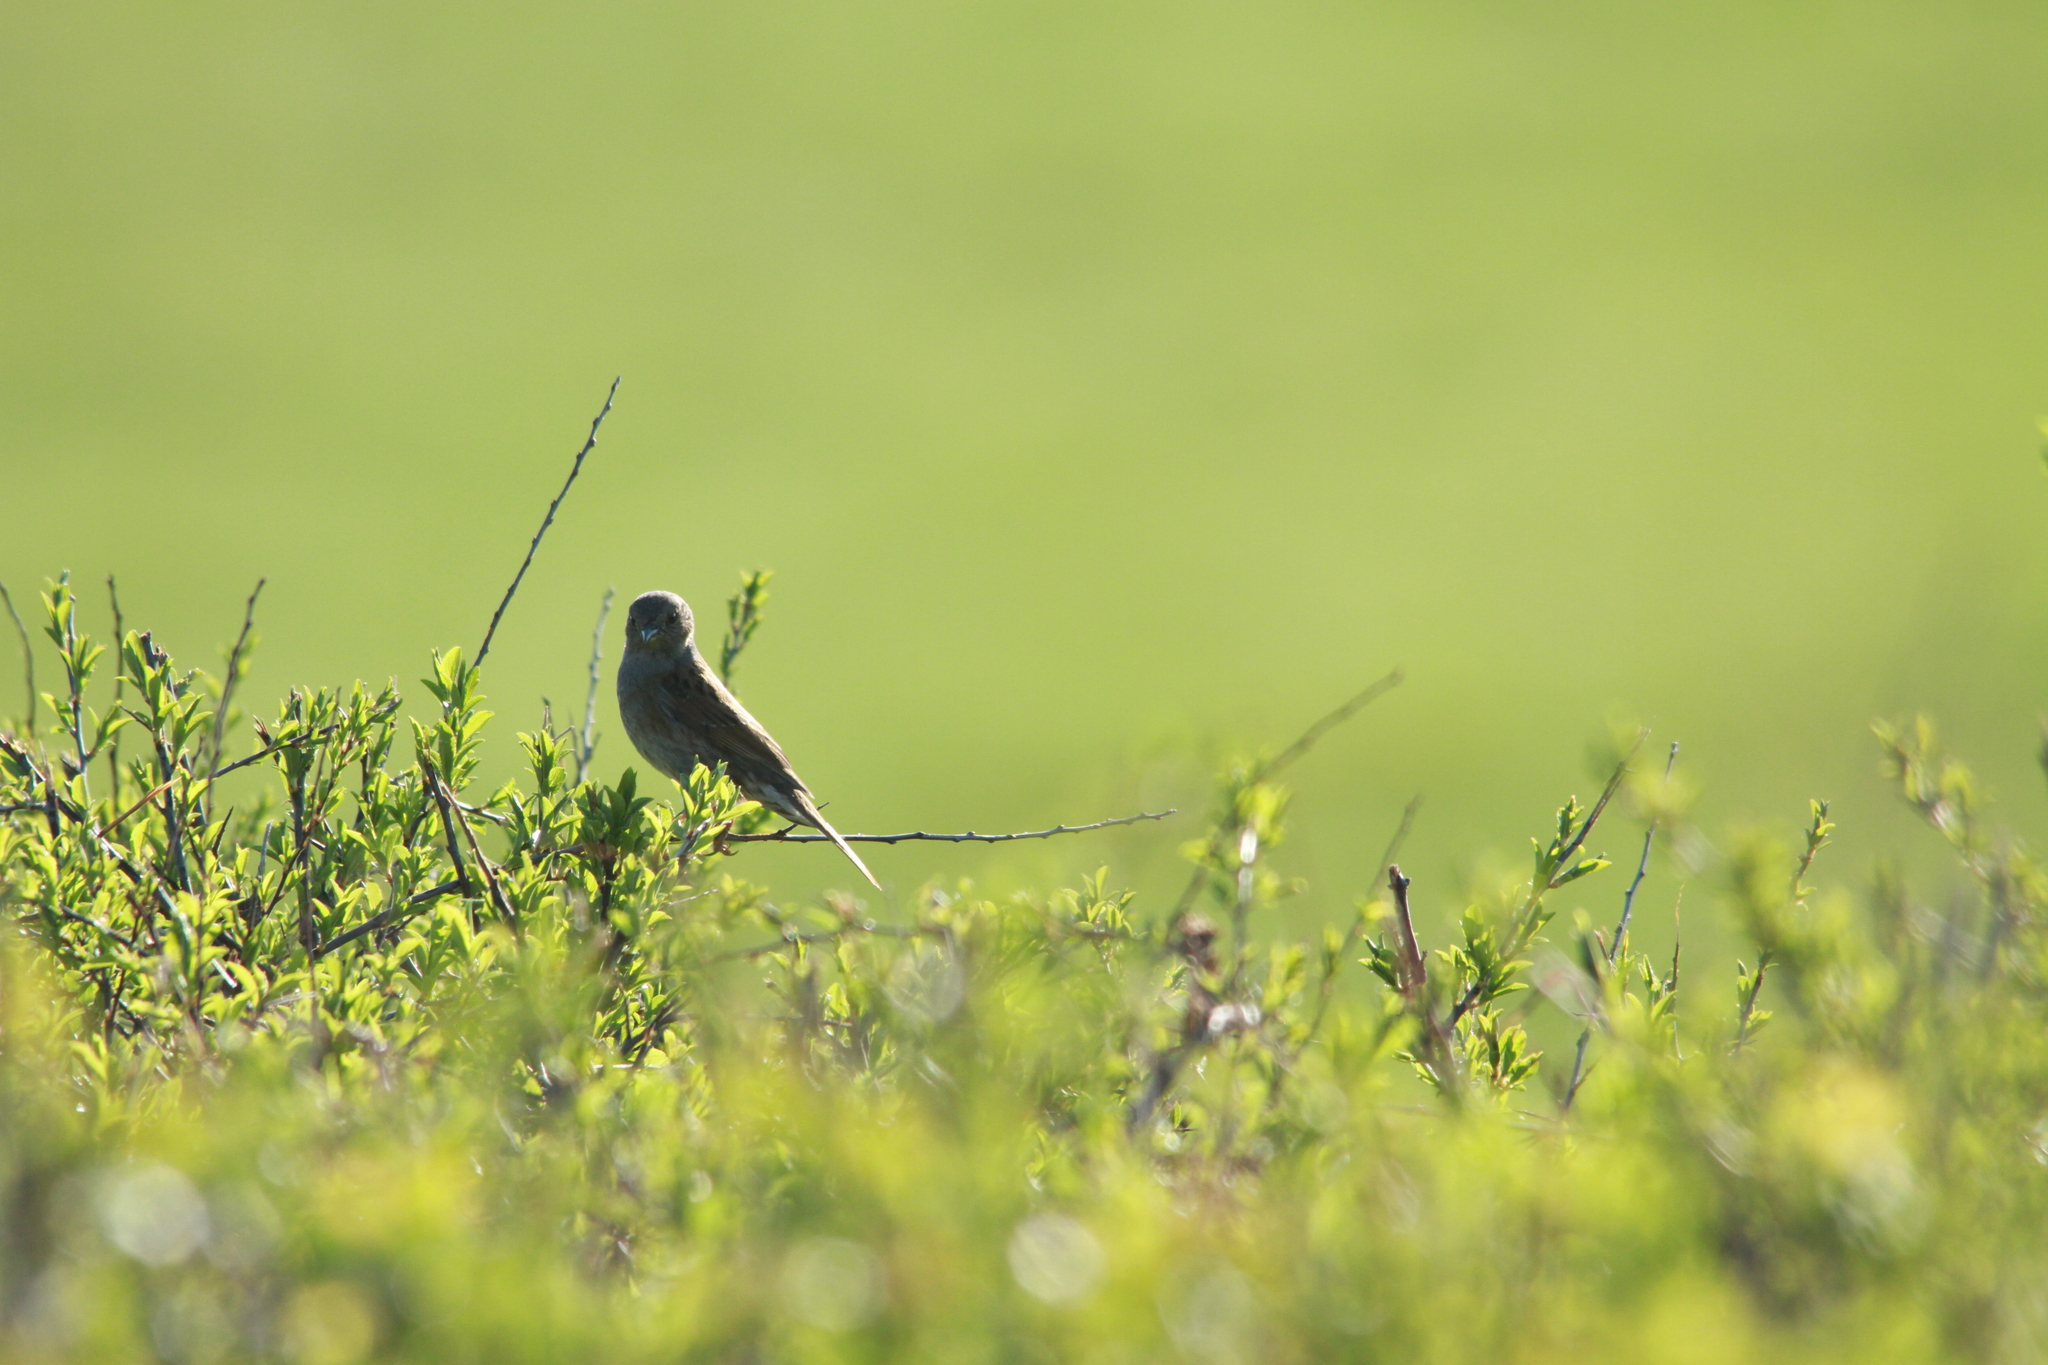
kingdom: Animalia
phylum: Chordata
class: Aves
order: Passeriformes
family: Prunellidae
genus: Prunella
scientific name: Prunella modularis
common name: Dunnock
